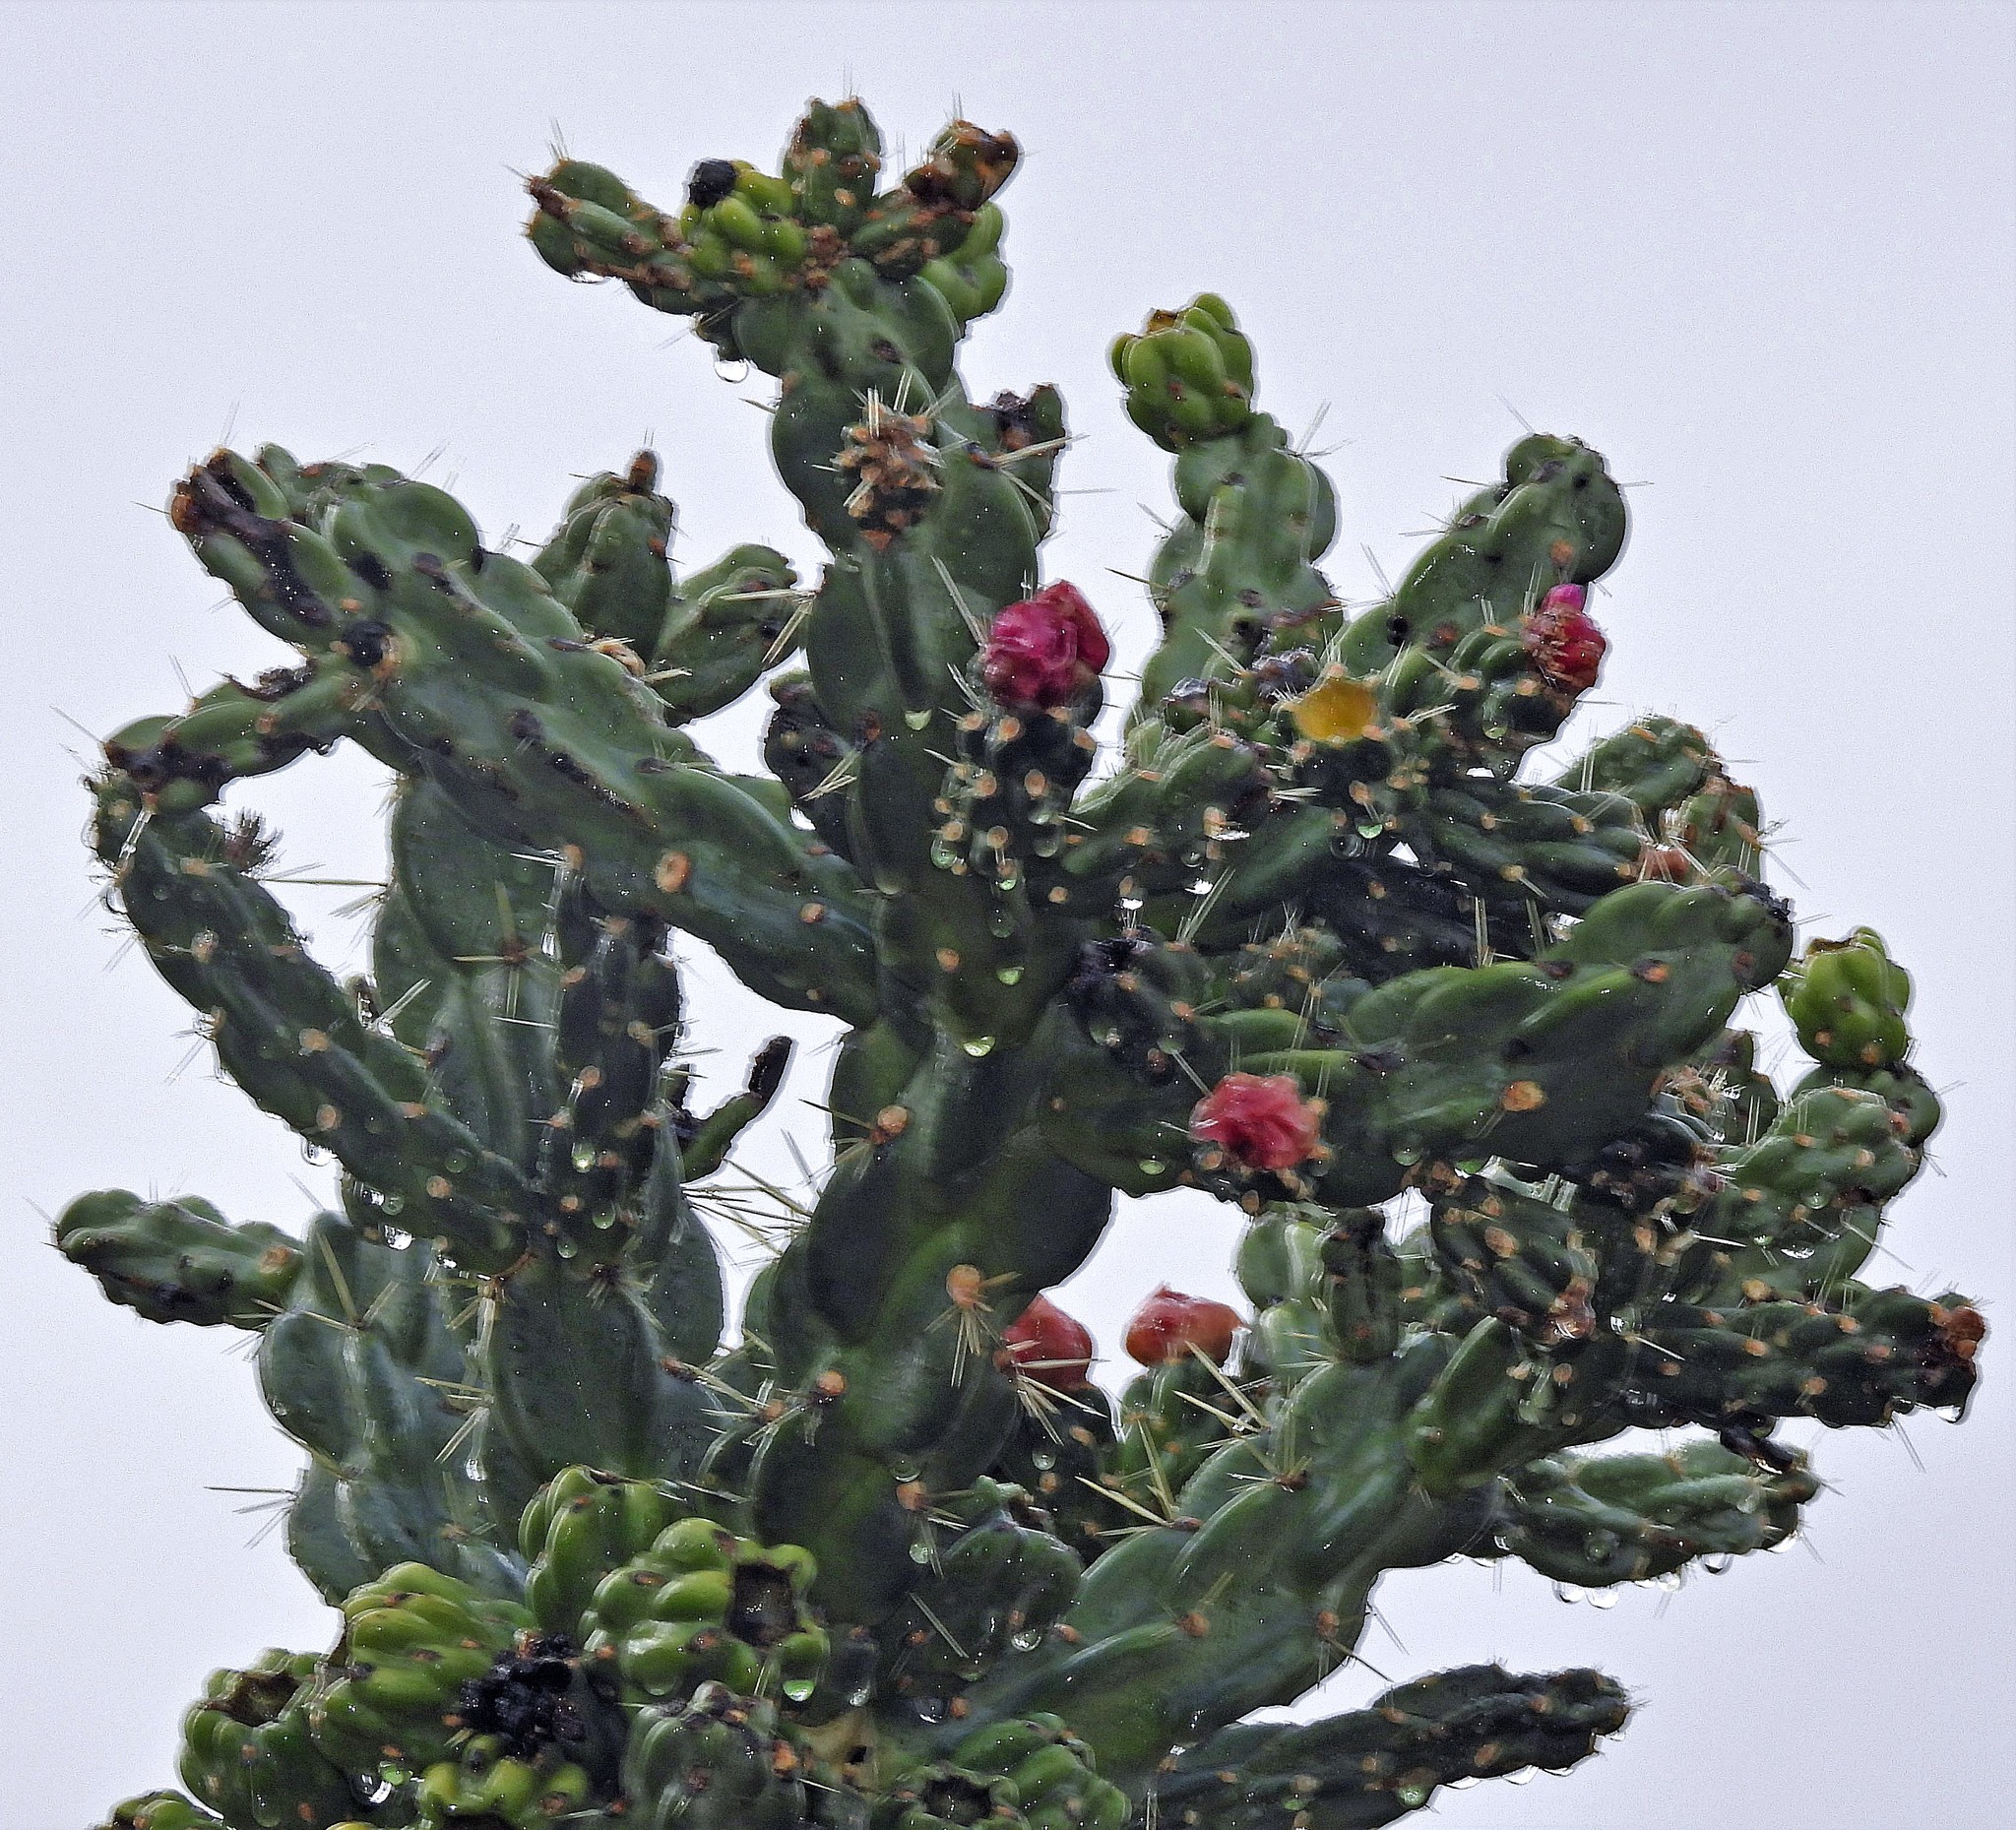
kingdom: Plantae
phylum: Tracheophyta
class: Magnoliopsida
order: Caryophyllales
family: Cactaceae
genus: Cylindropuntia
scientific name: Cylindropuntia imbricata
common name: Candelabrum cactus
